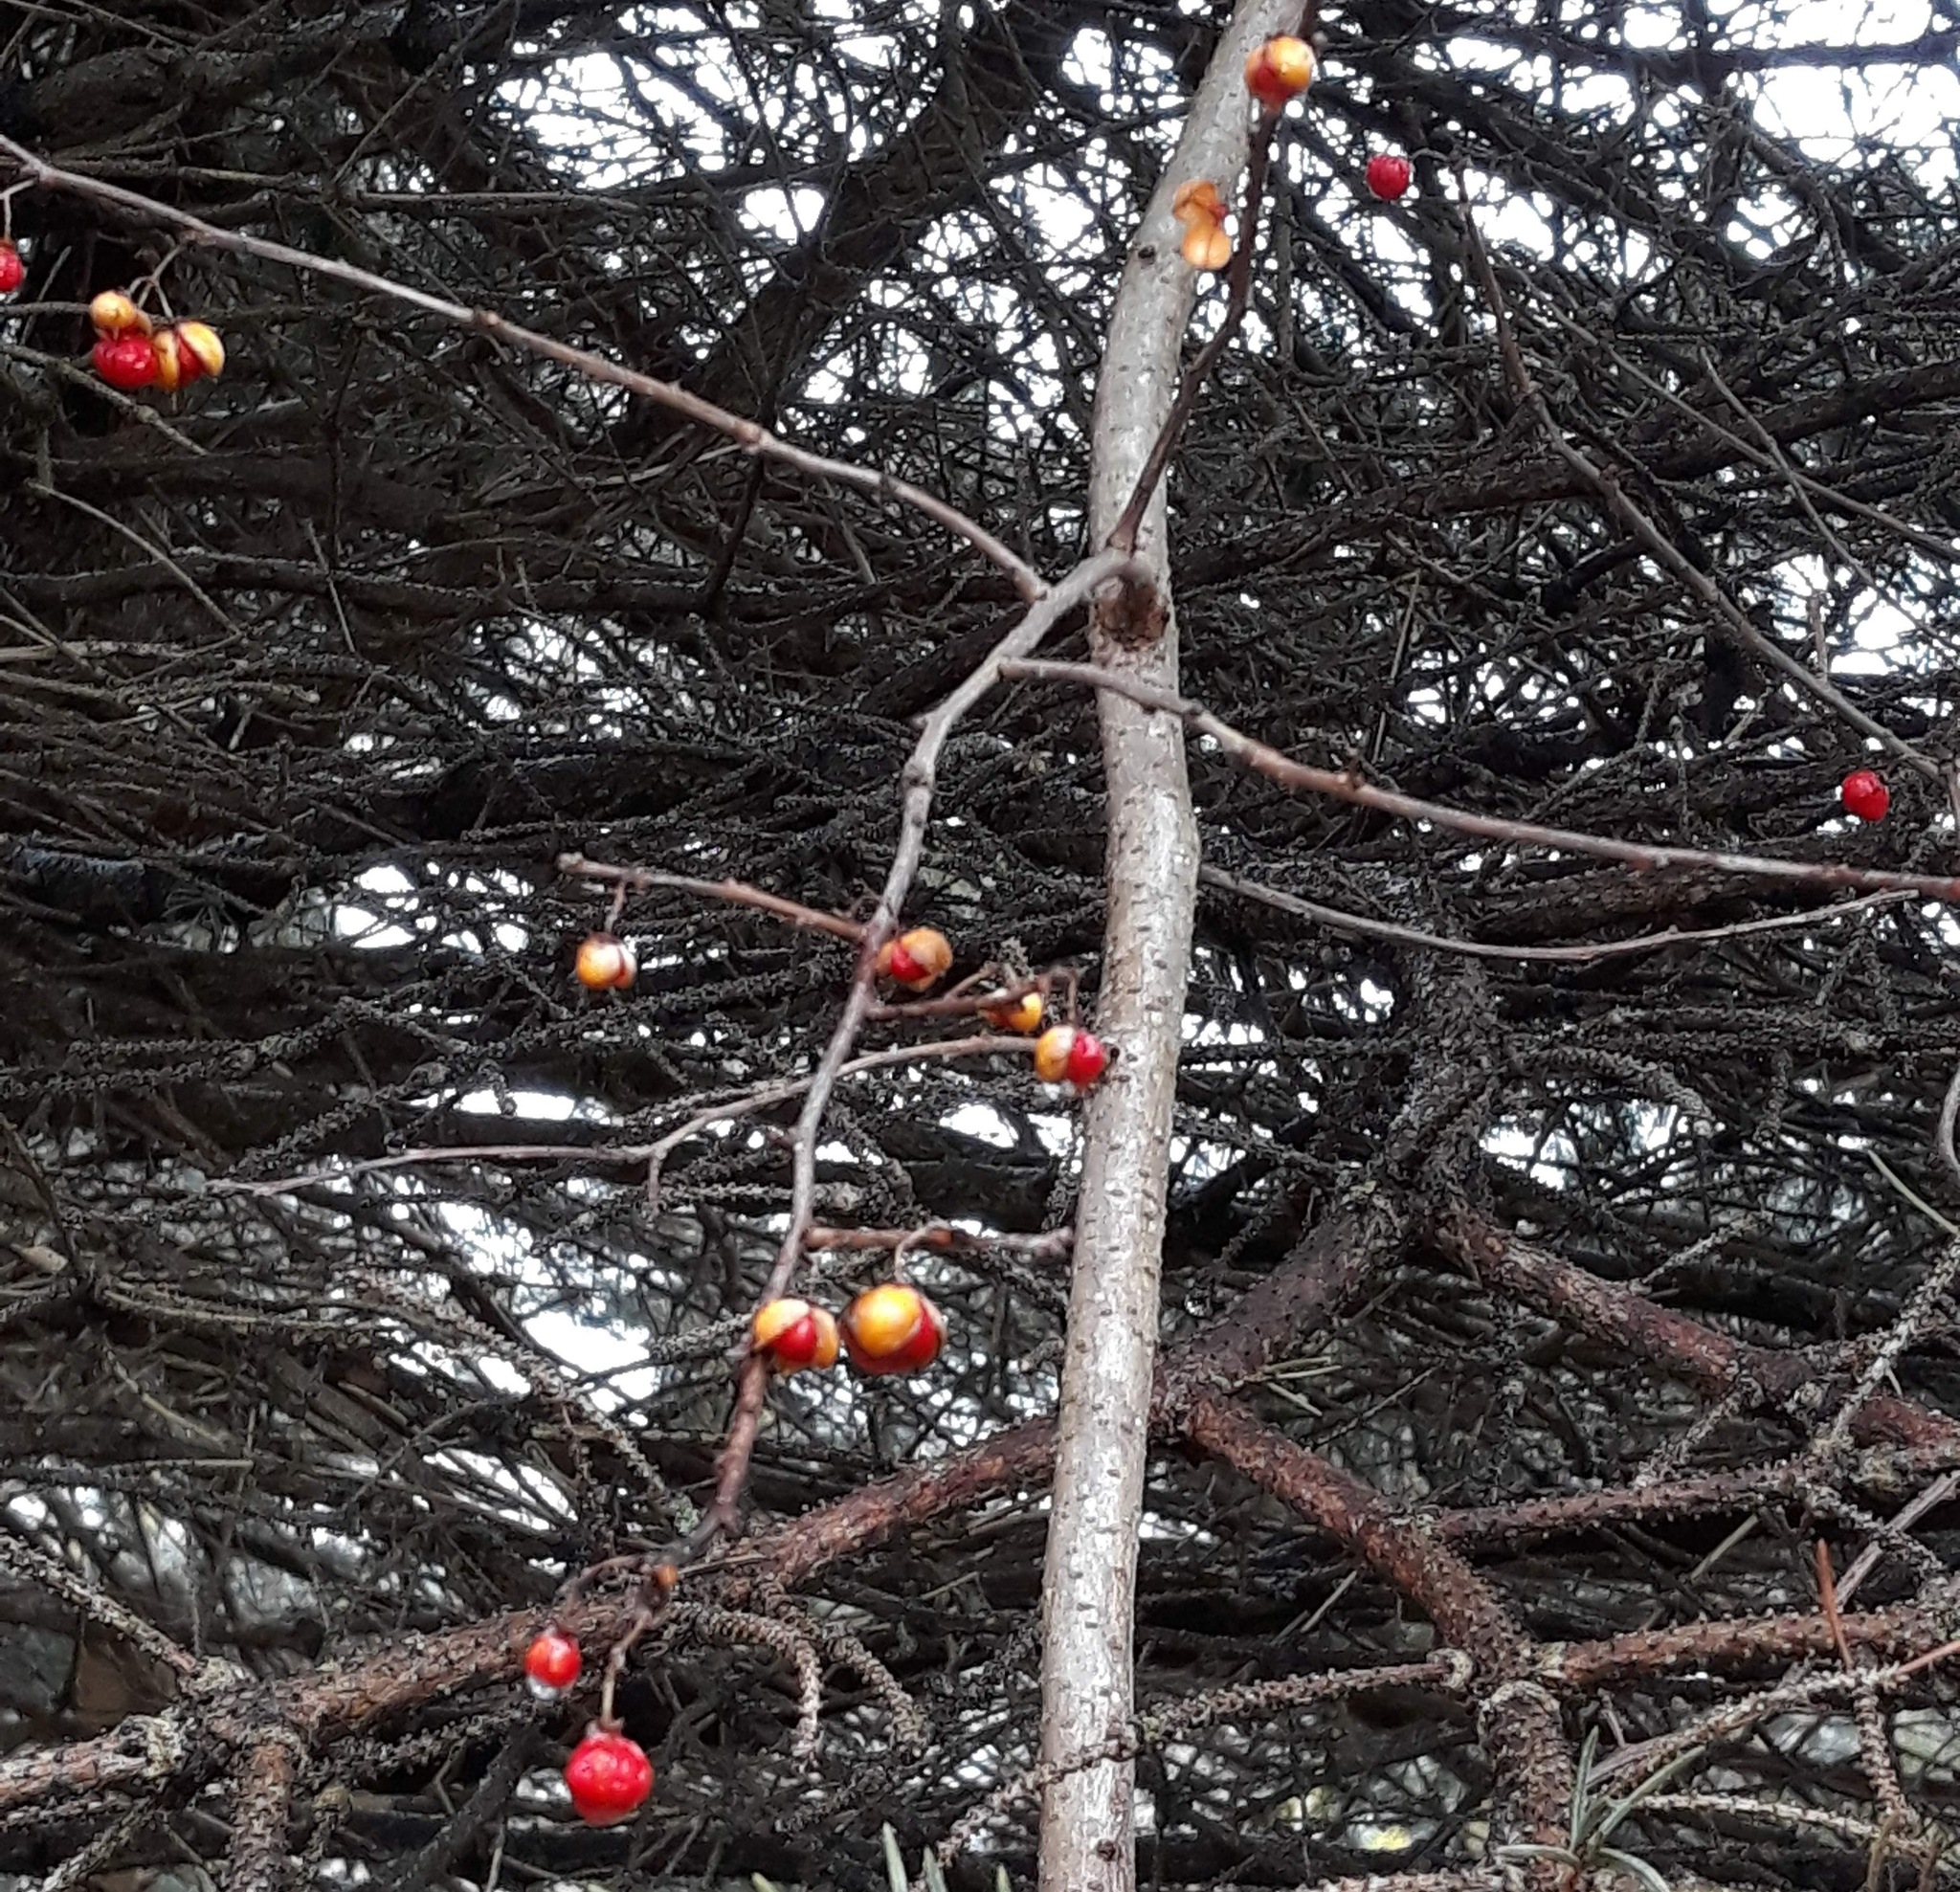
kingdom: Plantae
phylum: Tracheophyta
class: Magnoliopsida
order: Celastrales
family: Celastraceae
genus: Celastrus
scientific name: Celastrus orbiculatus
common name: Oriental bittersweet
